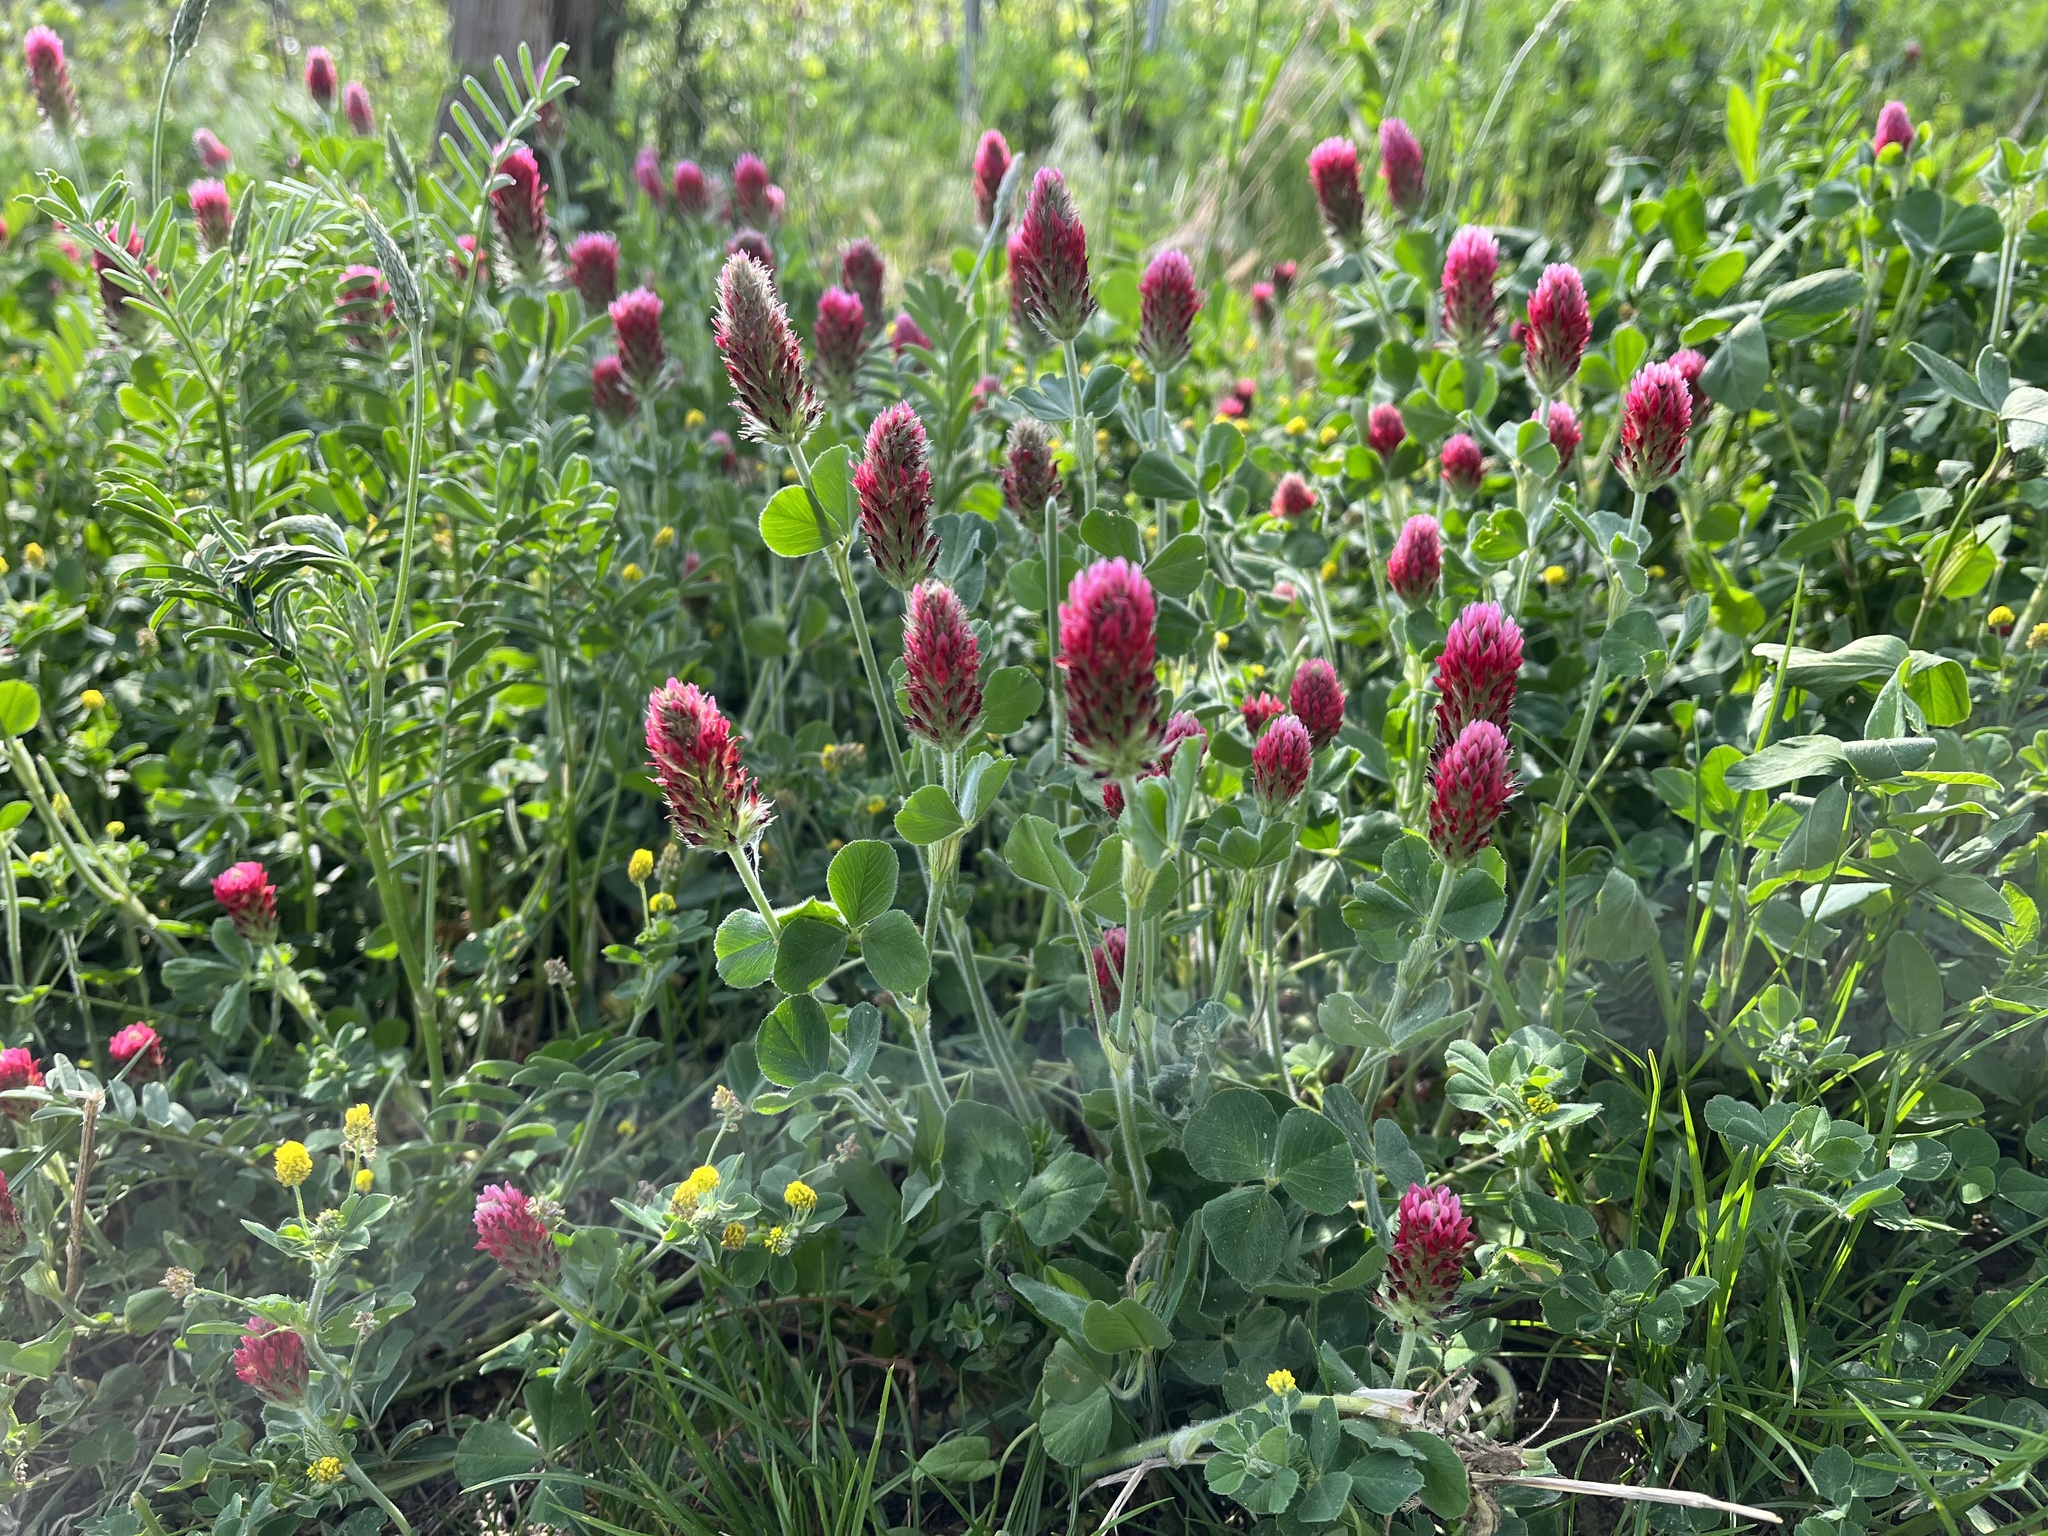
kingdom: Plantae
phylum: Tracheophyta
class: Magnoliopsida
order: Fabales
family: Fabaceae
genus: Trifolium
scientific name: Trifolium incarnatum
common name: Crimson clover
